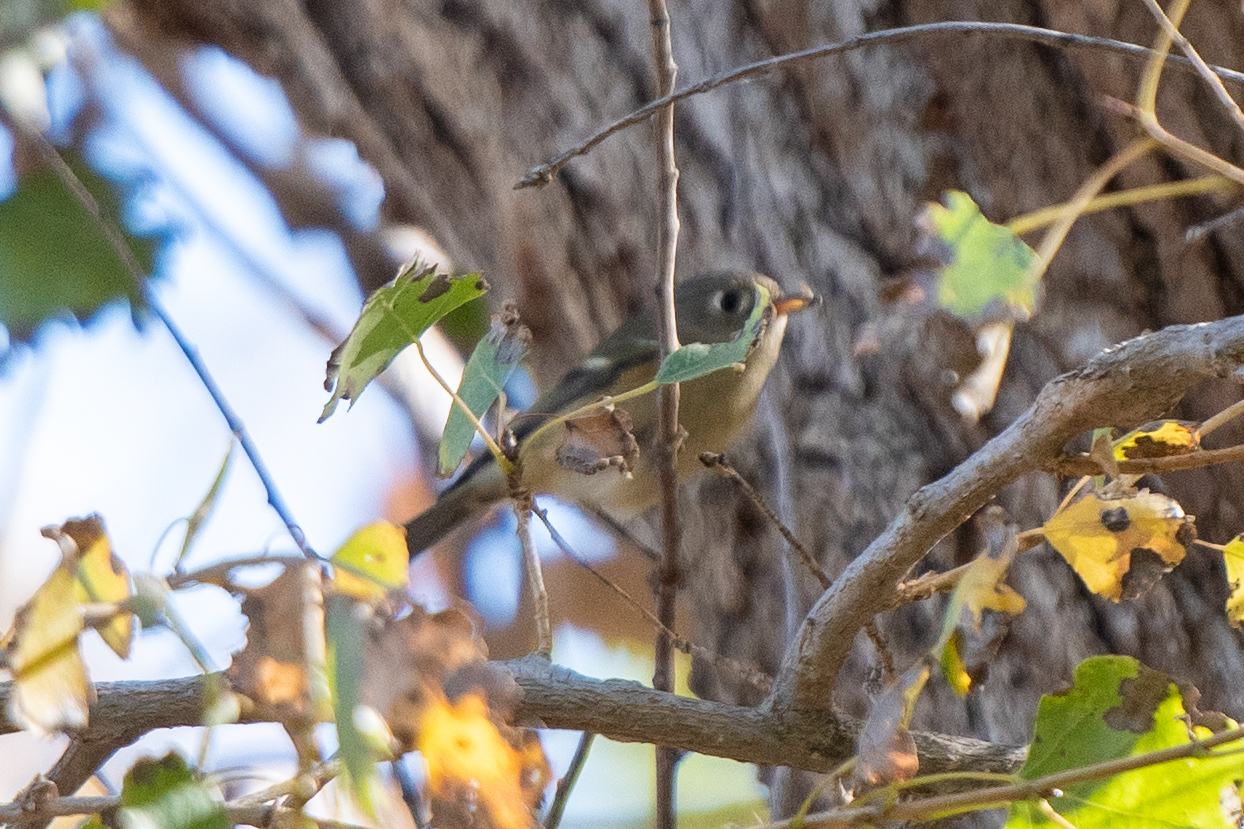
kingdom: Animalia
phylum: Chordata
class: Aves
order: Passeriformes
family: Regulidae
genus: Regulus
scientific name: Regulus calendula
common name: Ruby-crowned kinglet
